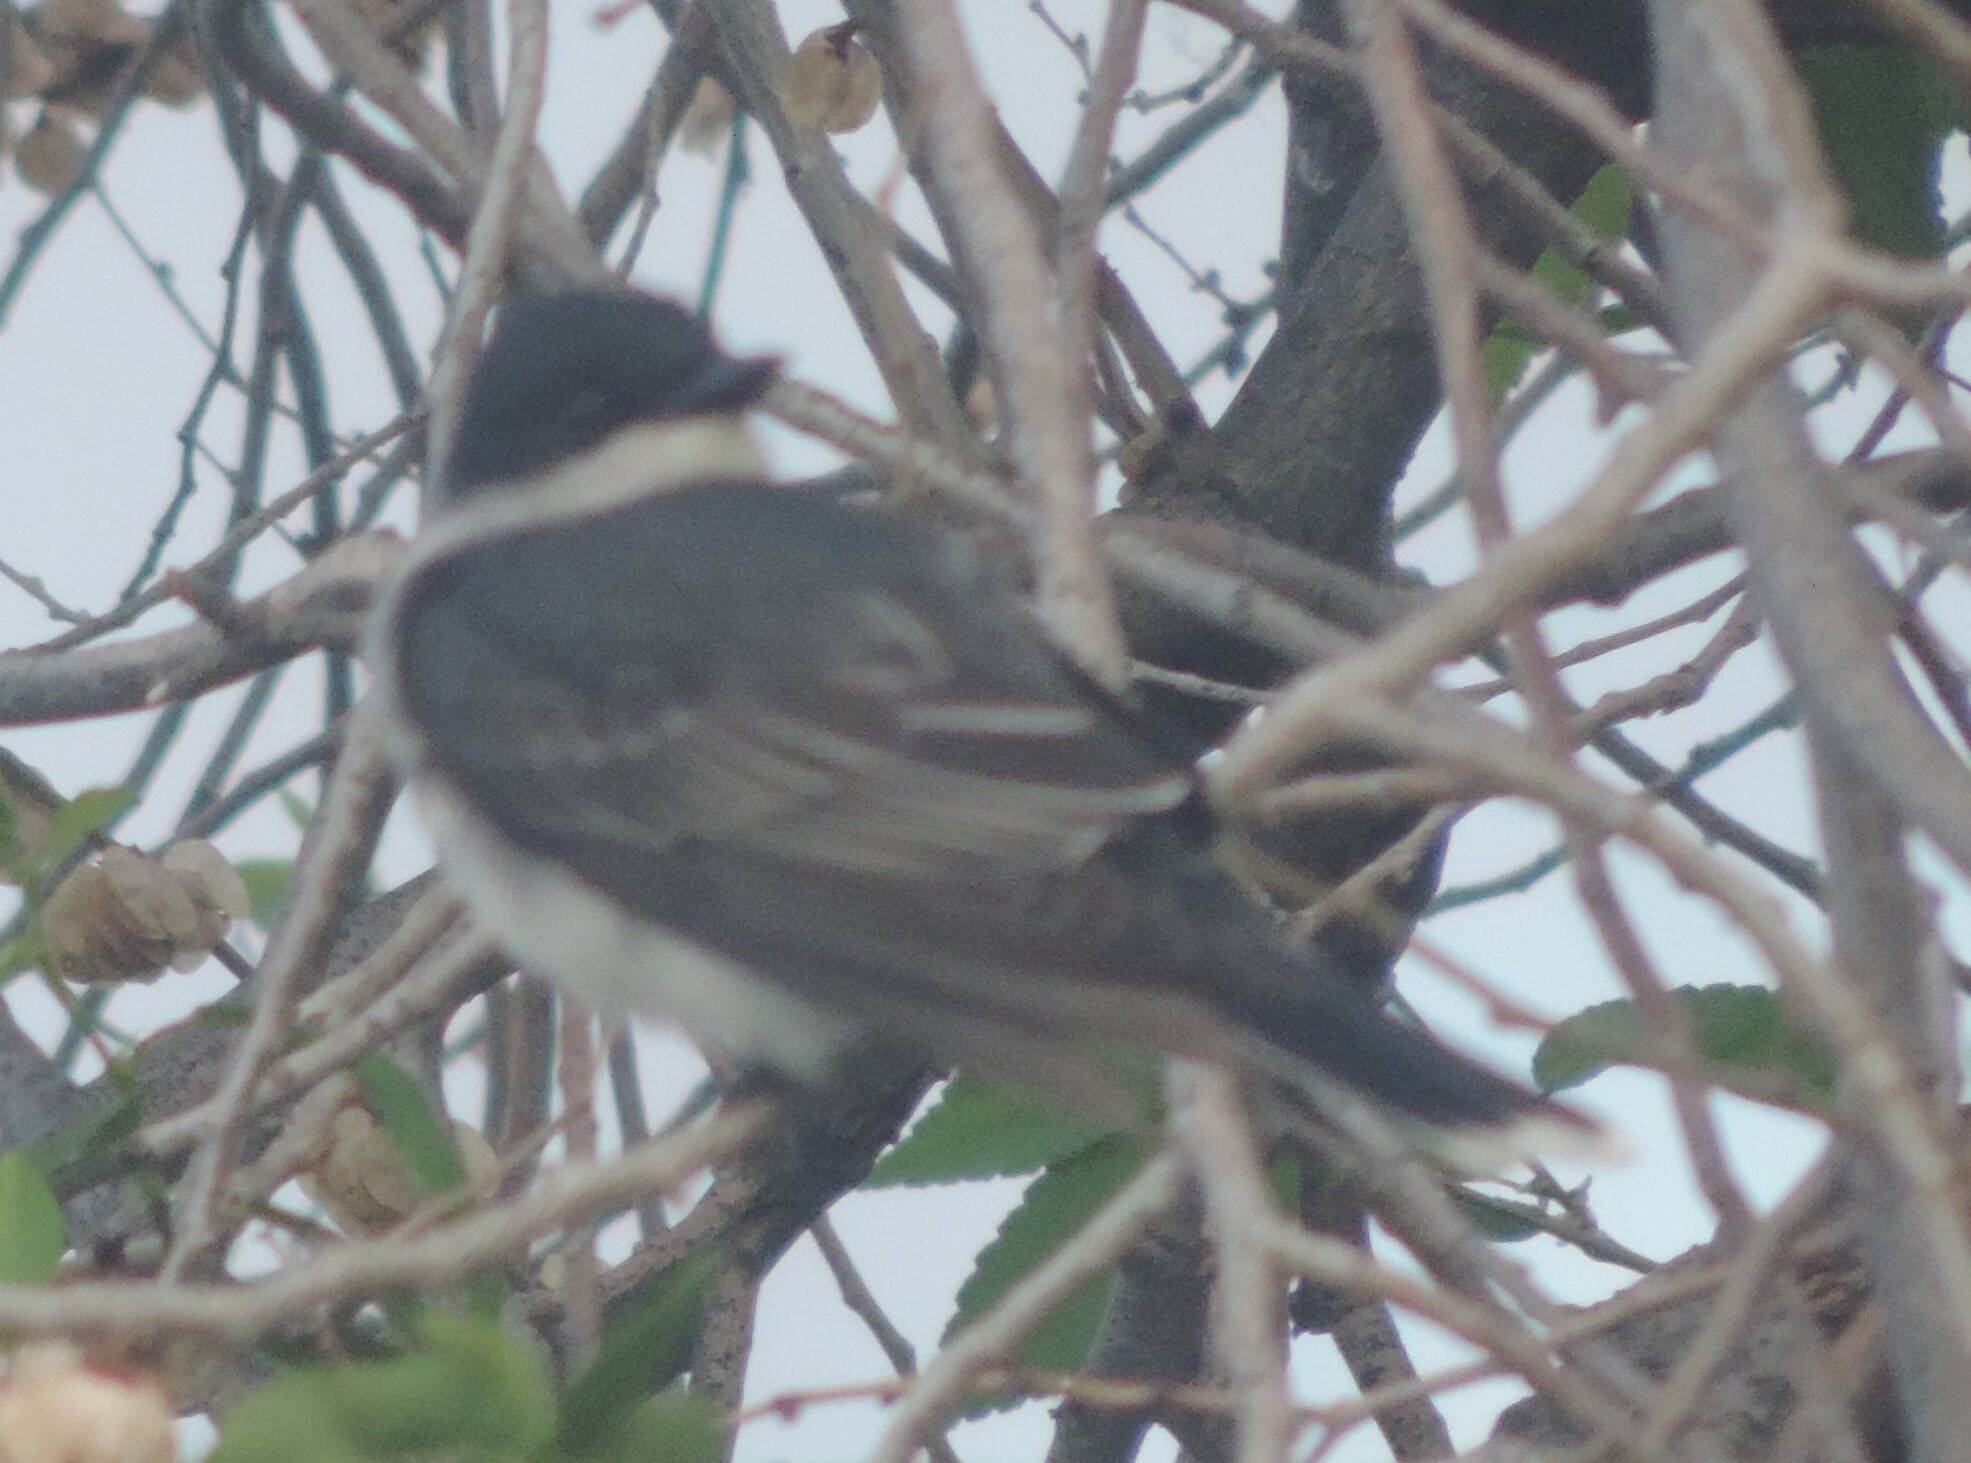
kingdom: Animalia
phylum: Chordata
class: Aves
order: Passeriformes
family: Tyrannidae
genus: Tyrannus
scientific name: Tyrannus tyrannus
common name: Eastern kingbird
